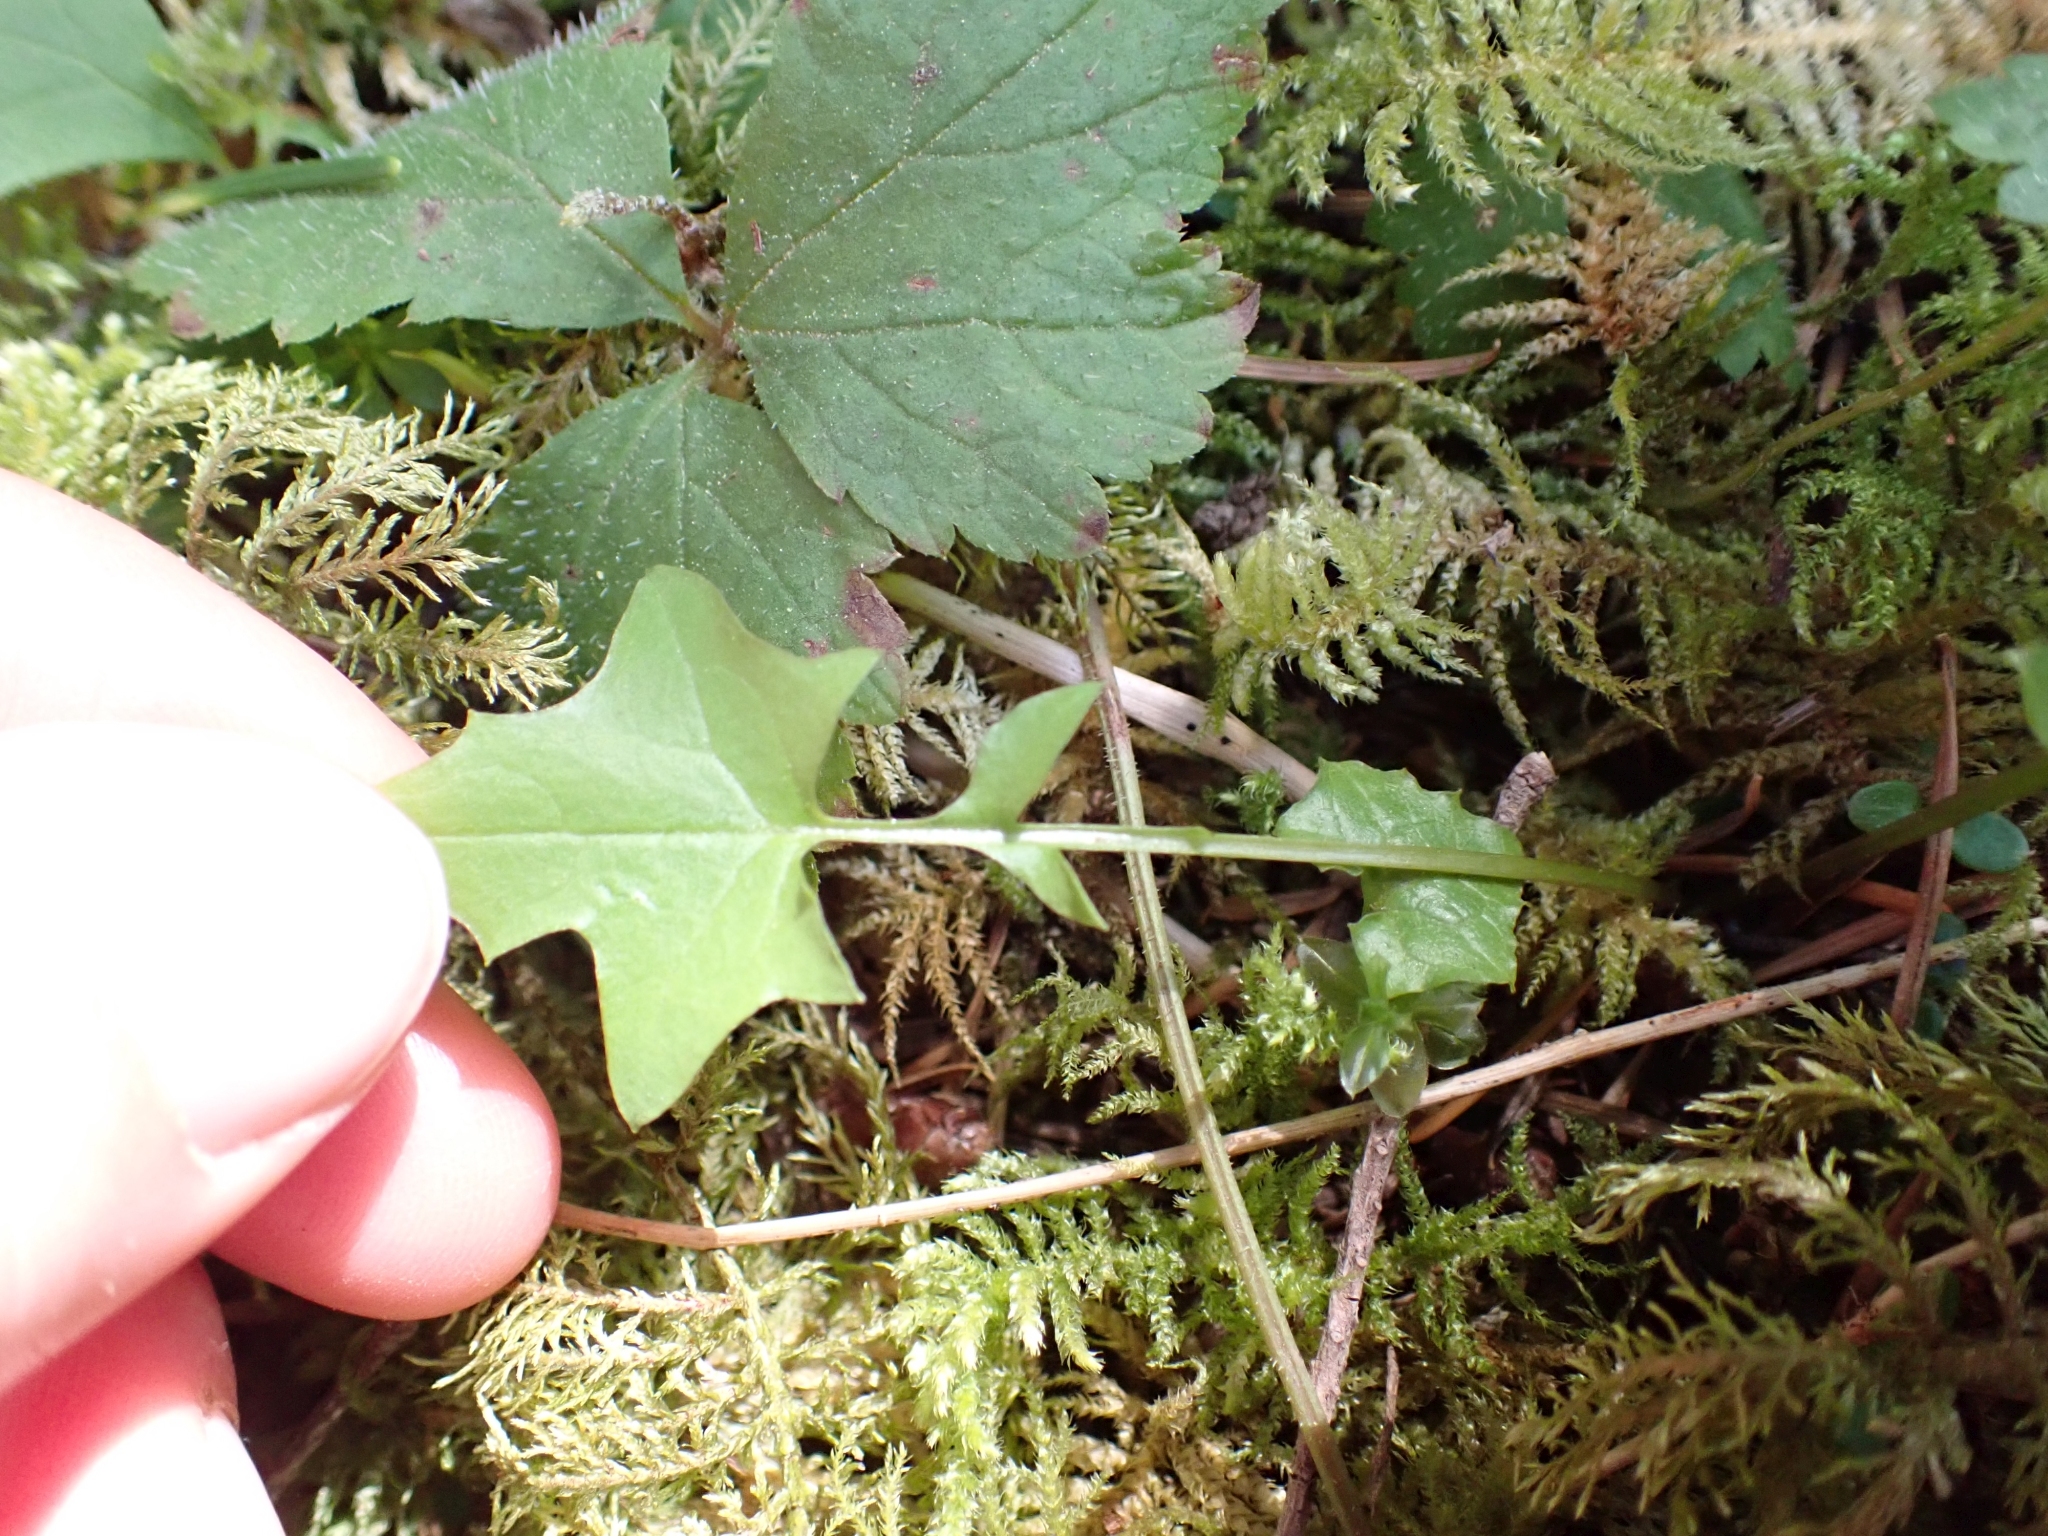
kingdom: Plantae
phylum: Tracheophyta
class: Magnoliopsida
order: Asterales
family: Asteraceae
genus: Mycelis
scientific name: Mycelis muralis
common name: Wall lettuce
